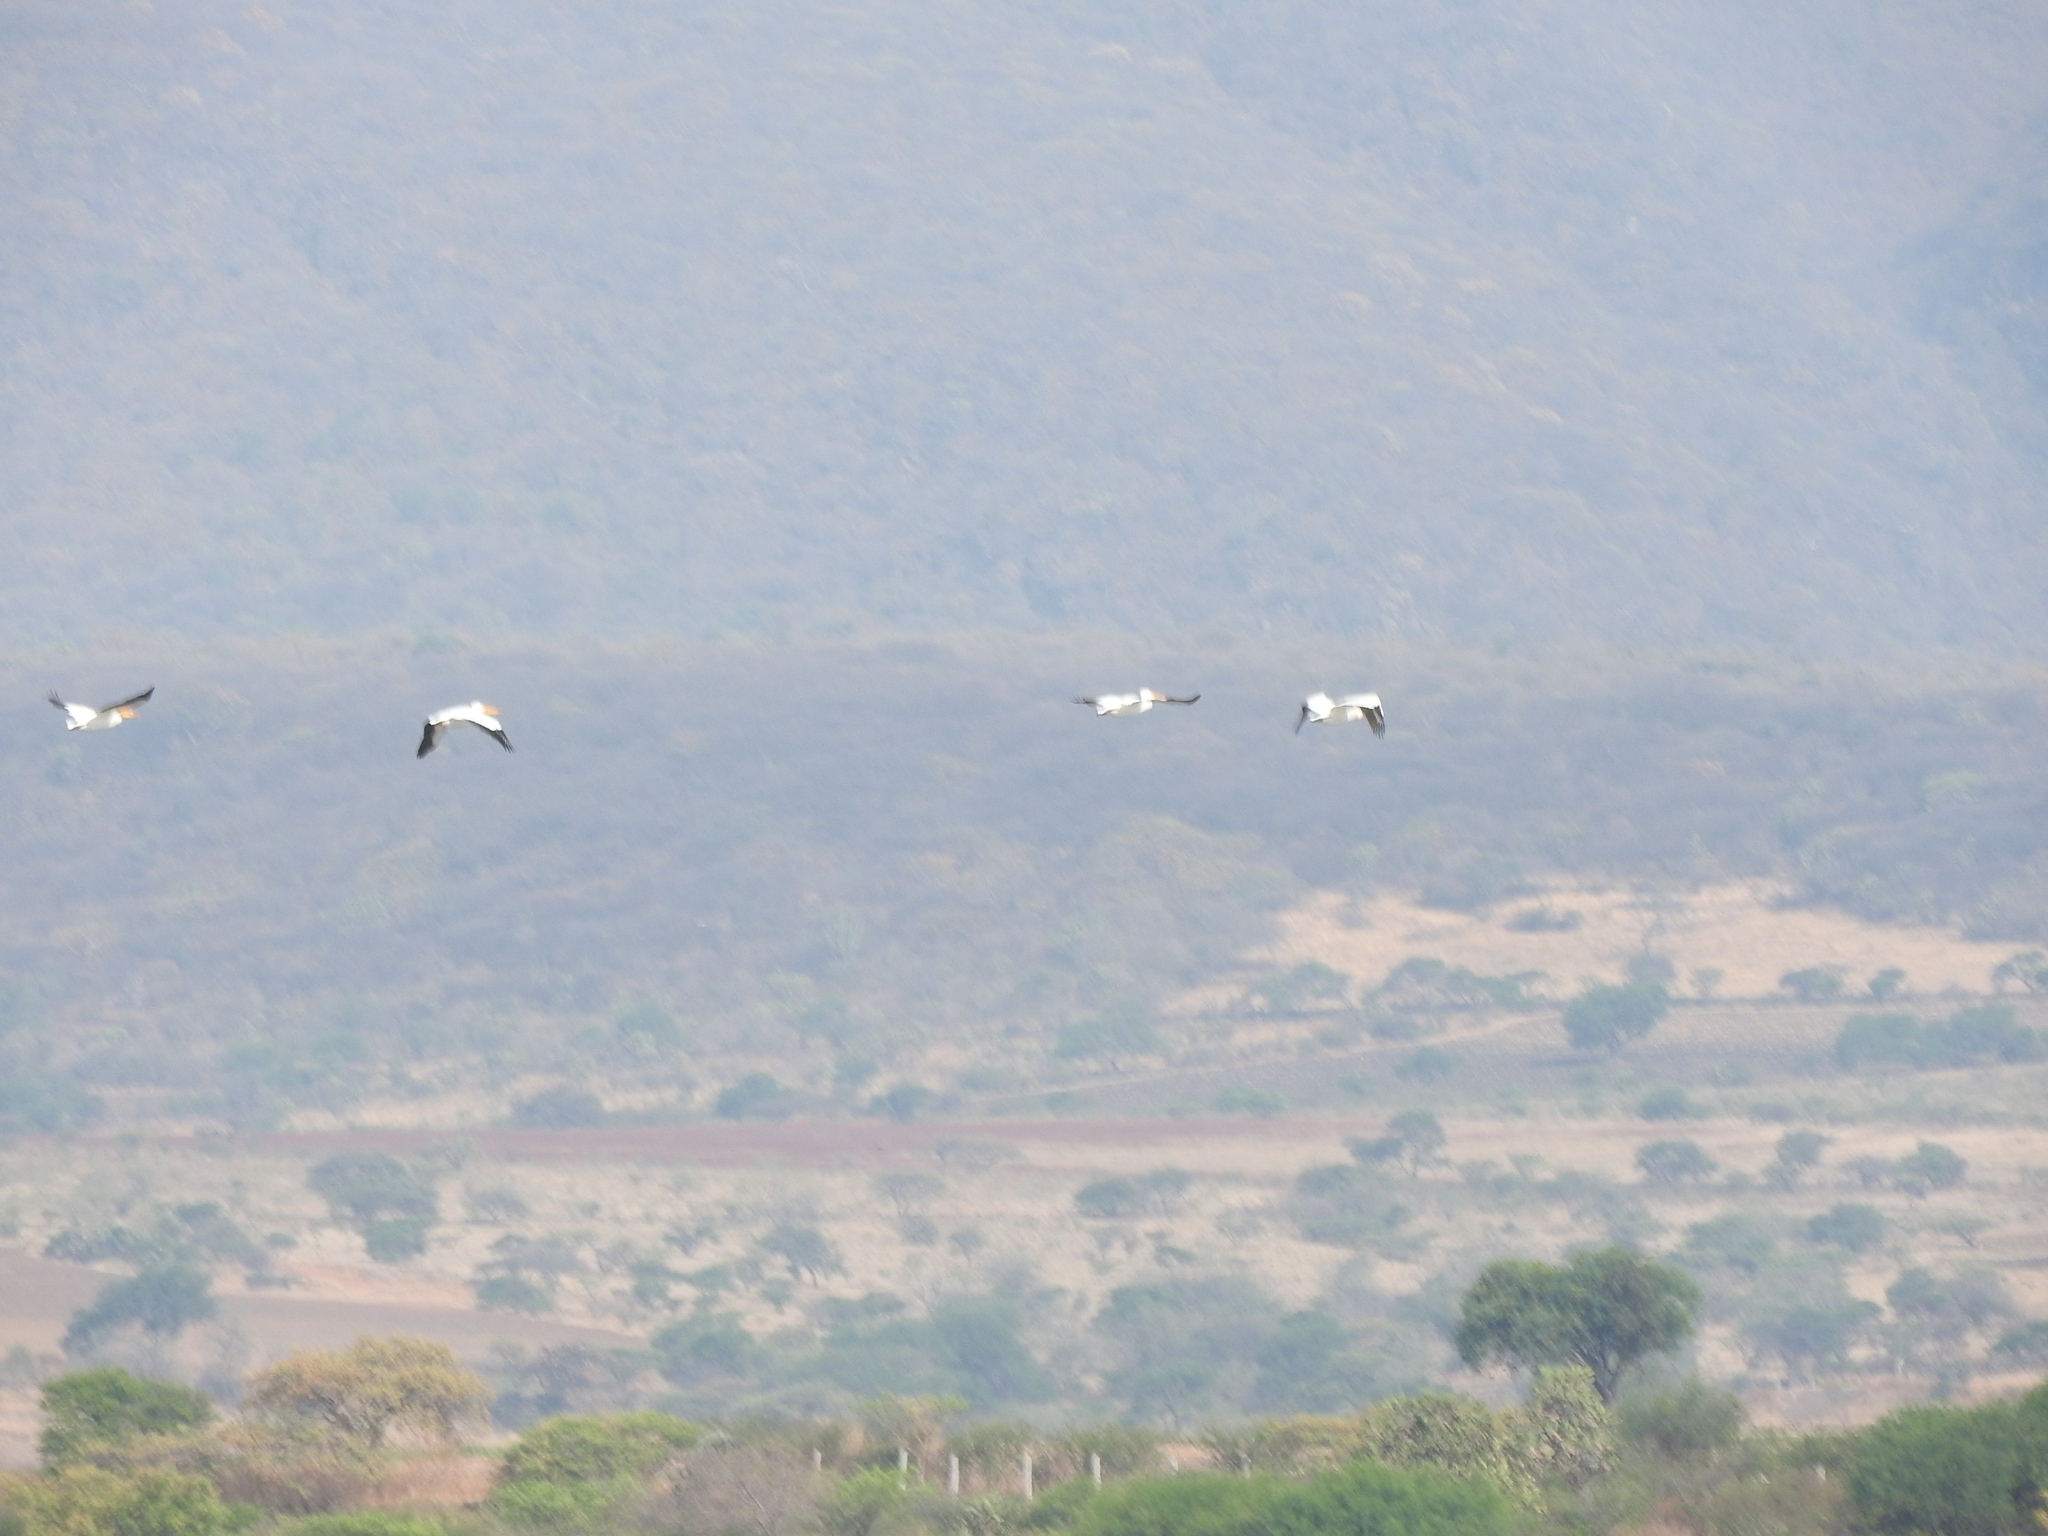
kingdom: Animalia
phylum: Chordata
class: Aves
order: Pelecaniformes
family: Pelecanidae
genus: Pelecanus
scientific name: Pelecanus erythrorhynchos
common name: American white pelican
